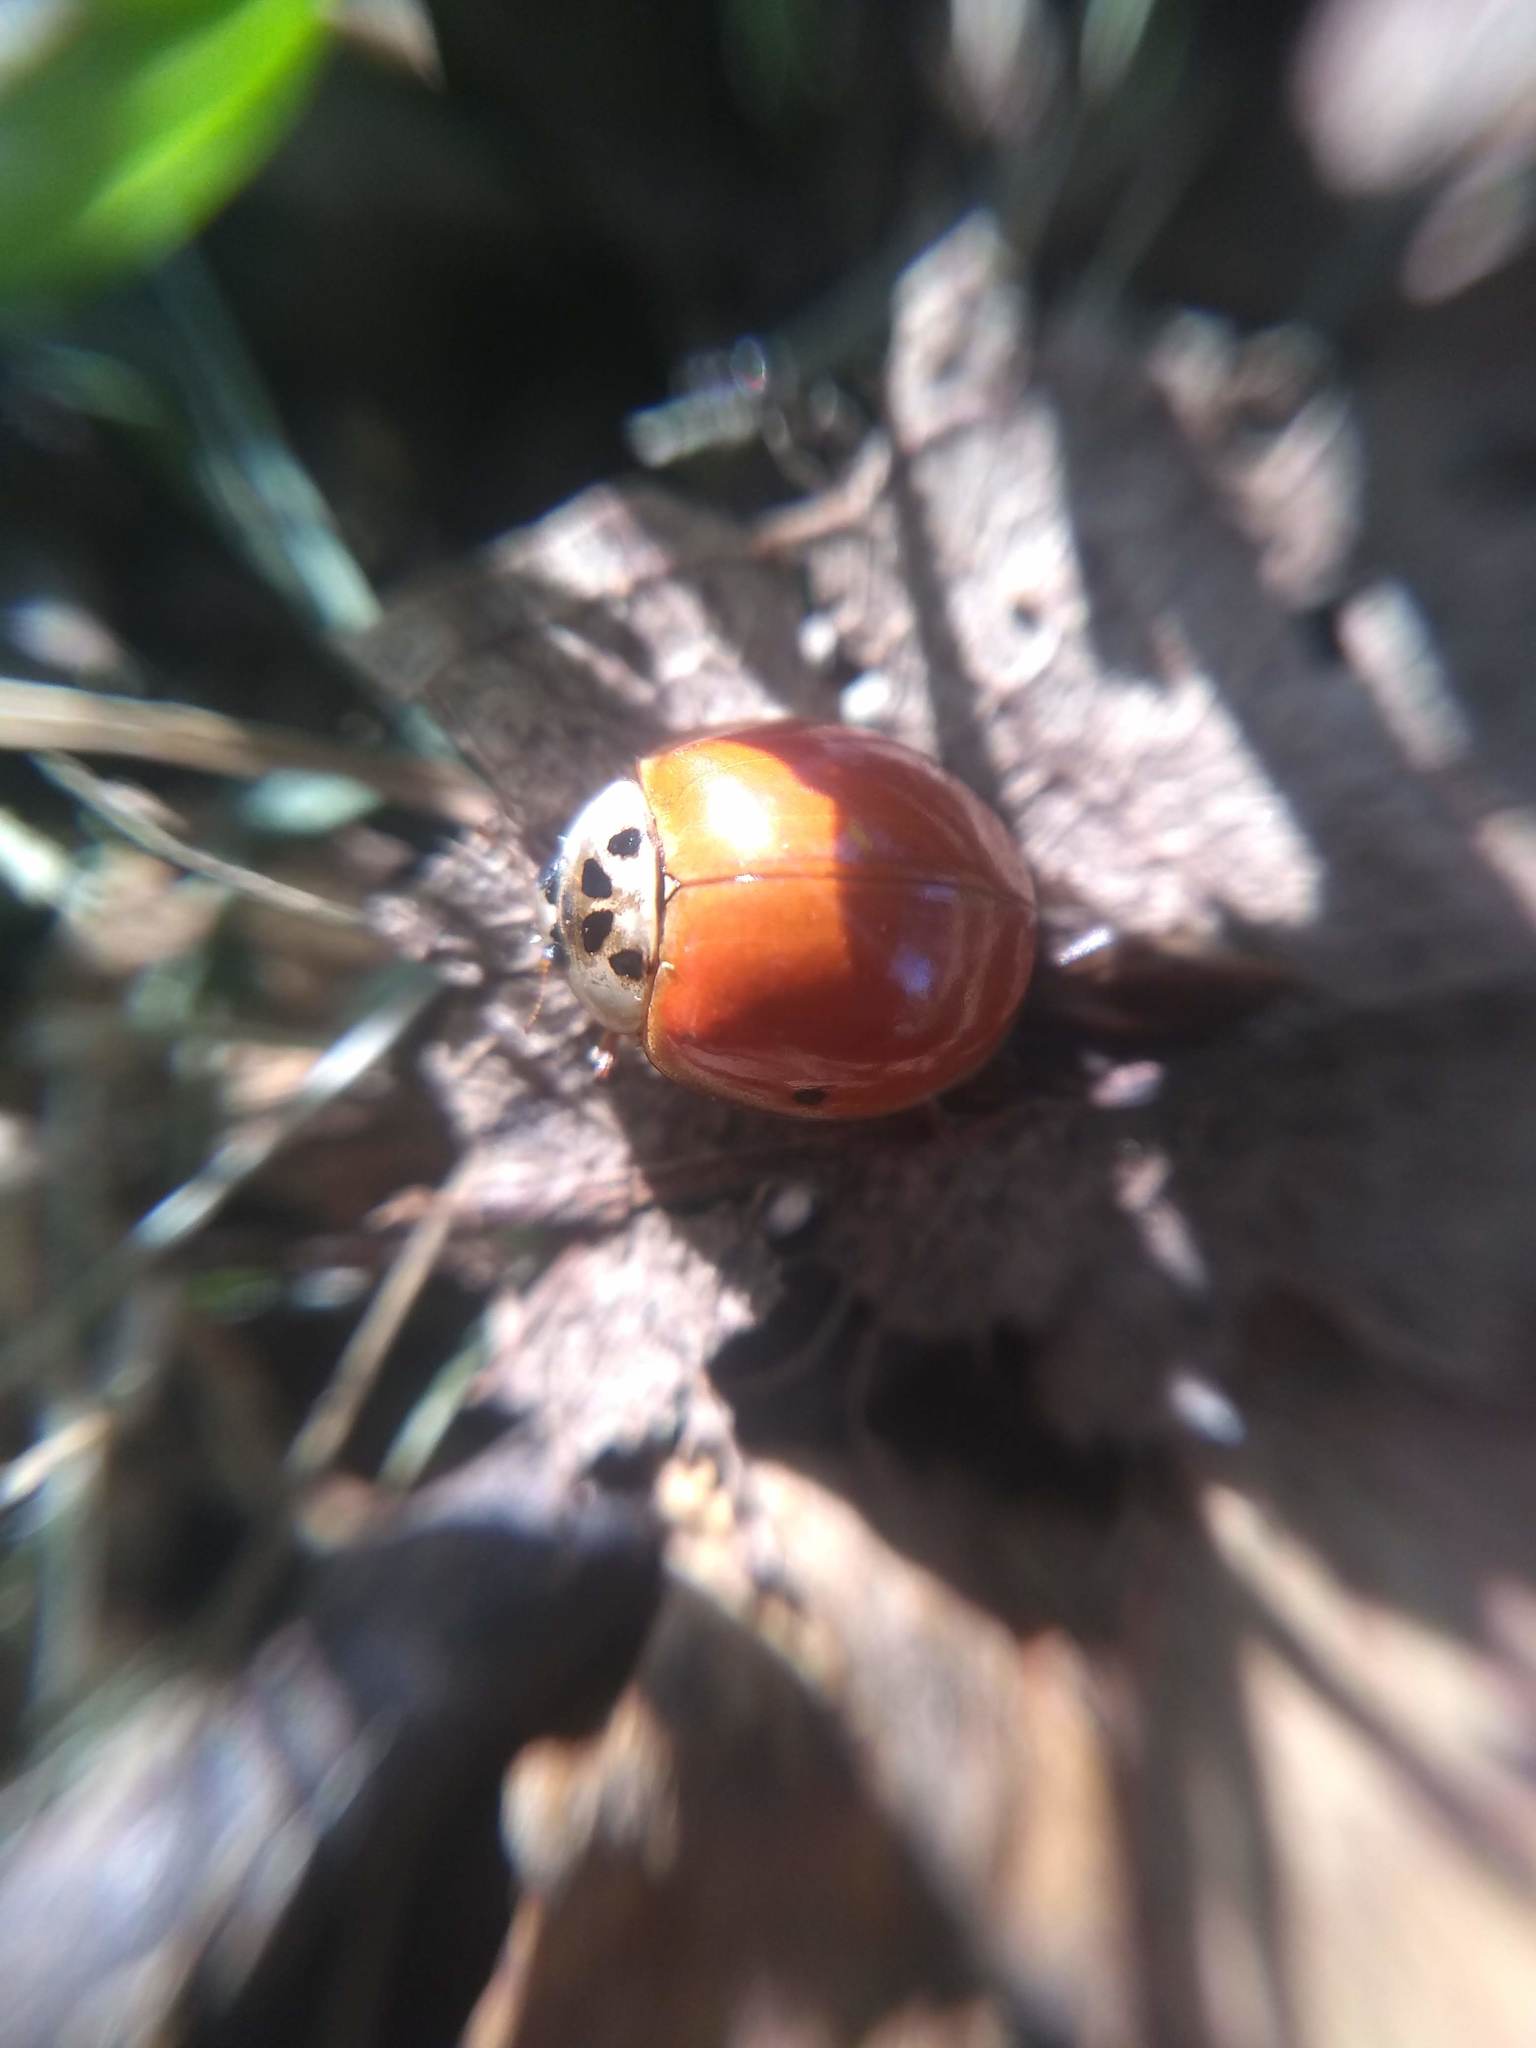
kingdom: Animalia
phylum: Arthropoda
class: Insecta
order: Coleoptera
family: Coccinellidae
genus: Harmonia
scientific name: Harmonia axyridis
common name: Harlequin ladybird
